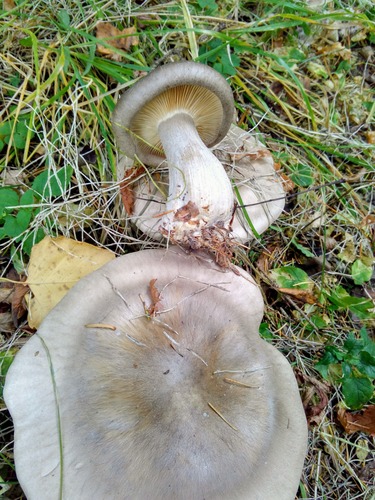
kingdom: Fungi
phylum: Basidiomycota
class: Agaricomycetes
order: Agaricales
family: Tricholomataceae
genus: Clitocybe
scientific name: Clitocybe nebularis
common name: Clouded agaric
